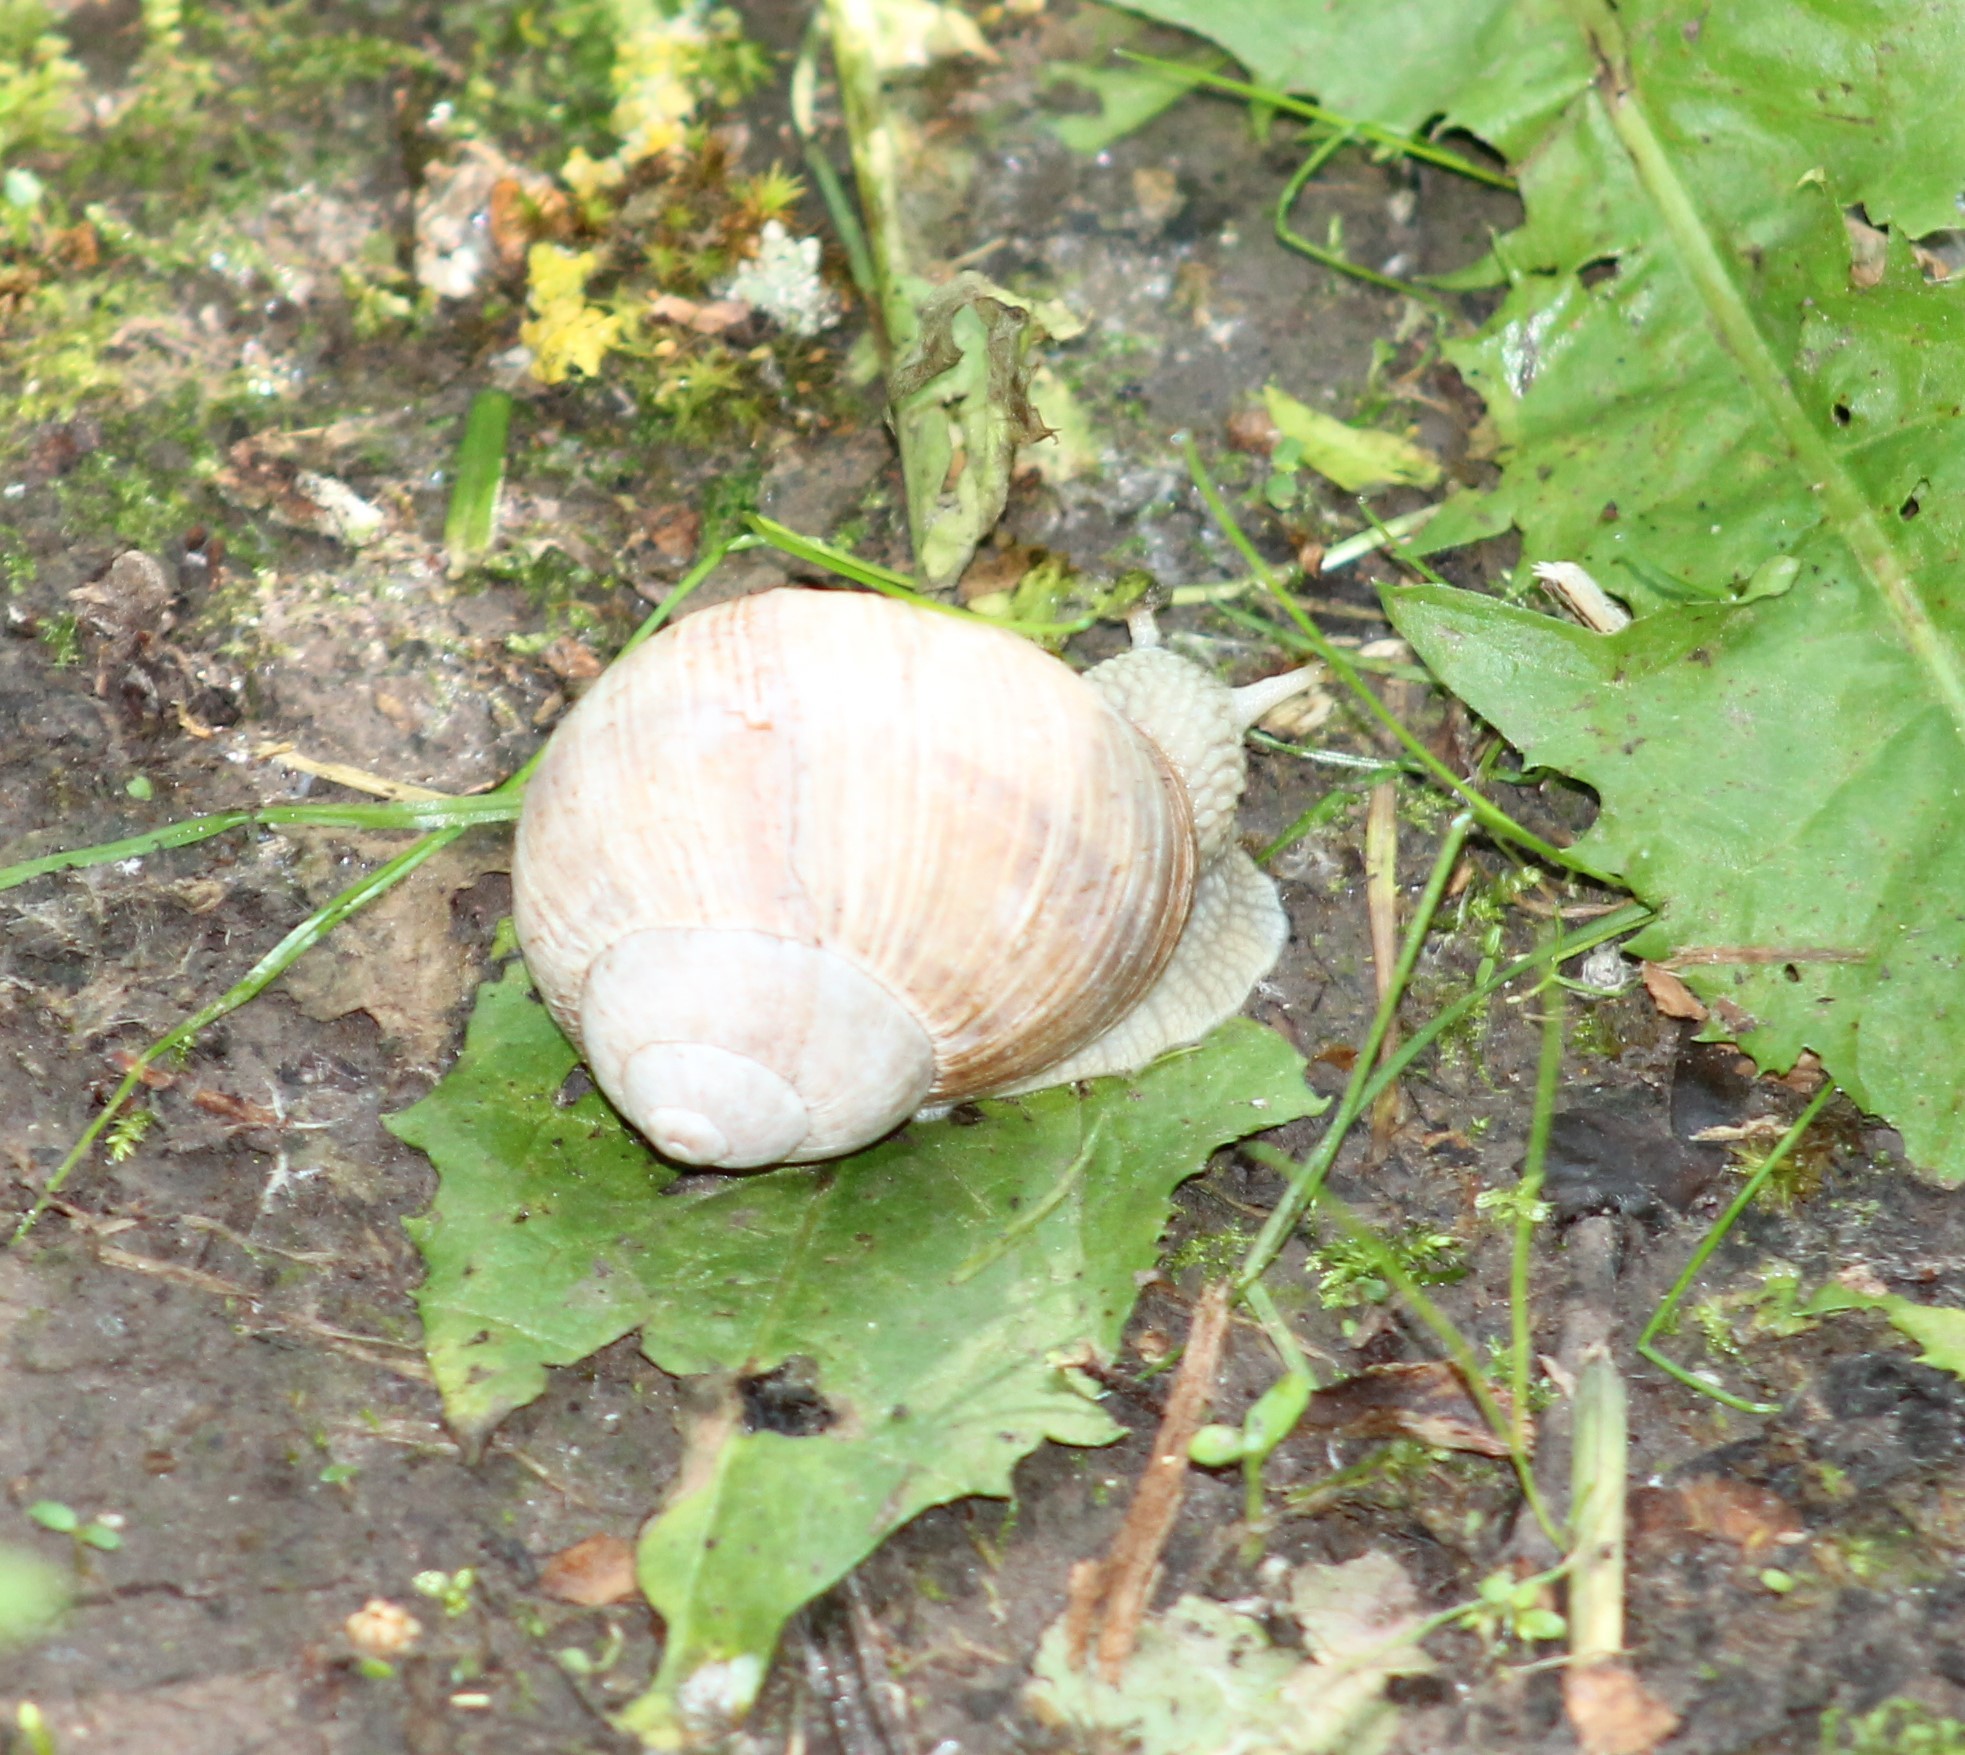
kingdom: Animalia
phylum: Mollusca
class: Gastropoda
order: Stylommatophora
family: Helicidae
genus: Helix
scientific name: Helix pomatia
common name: Roman snail
